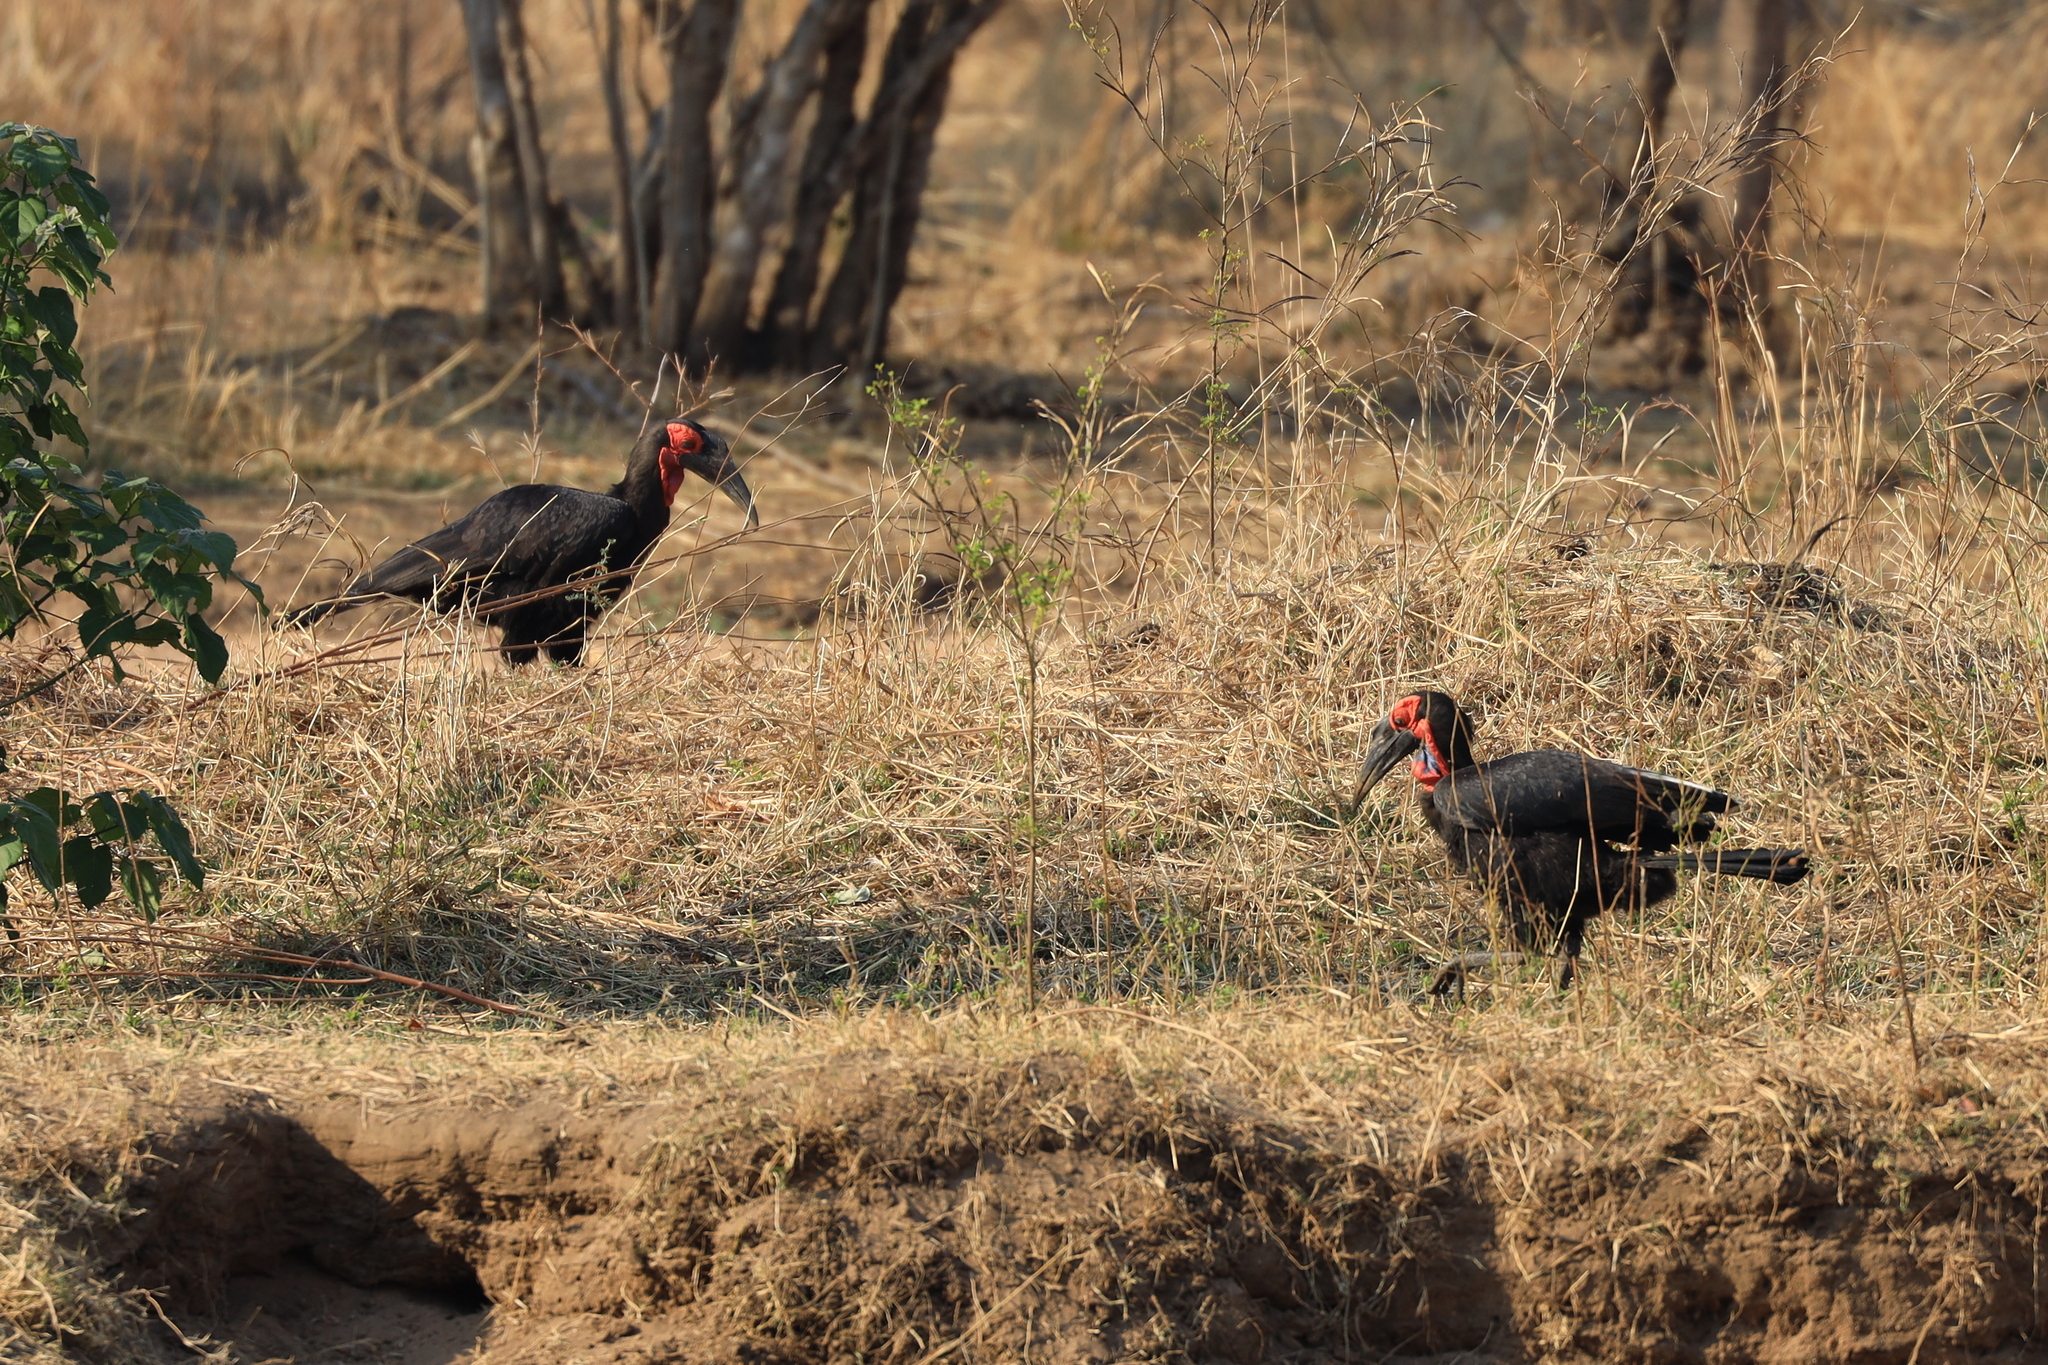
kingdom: Animalia
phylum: Chordata
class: Aves
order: Bucerotiformes
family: Bucorvidae
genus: Bucorvus
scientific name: Bucorvus leadbeateri
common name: Southern ground-hornbill
